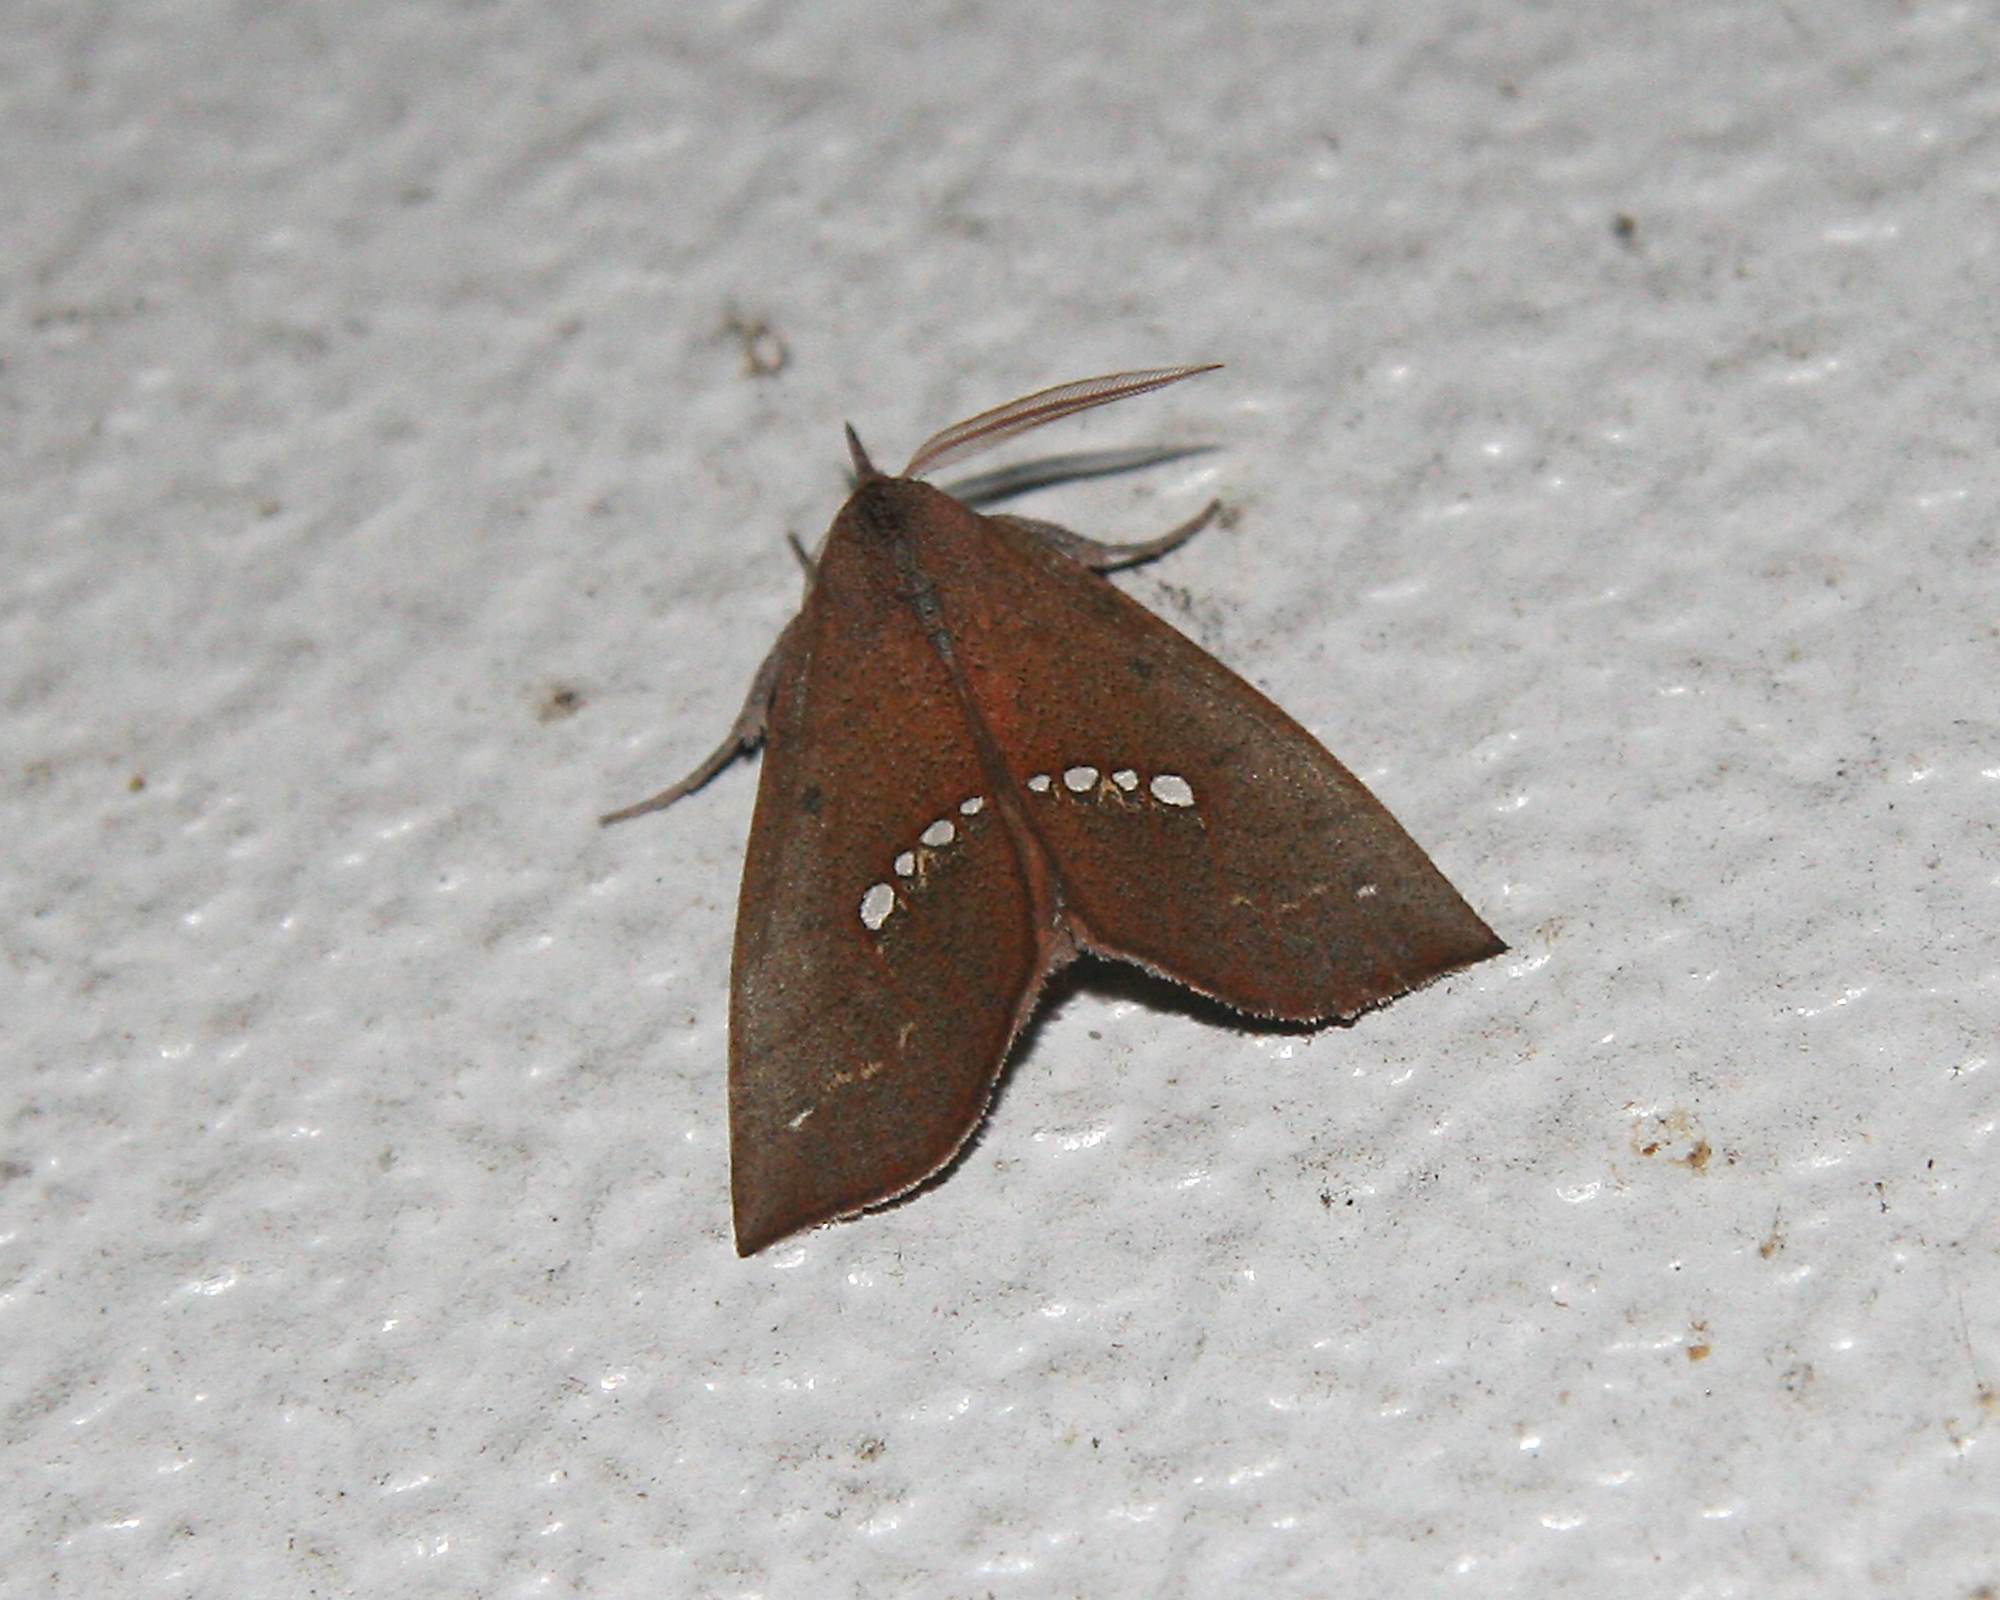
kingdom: Animalia
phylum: Arthropoda
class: Insecta
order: Lepidoptera
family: Erebidae
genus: Hypsoropha
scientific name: Hypsoropha monilis
